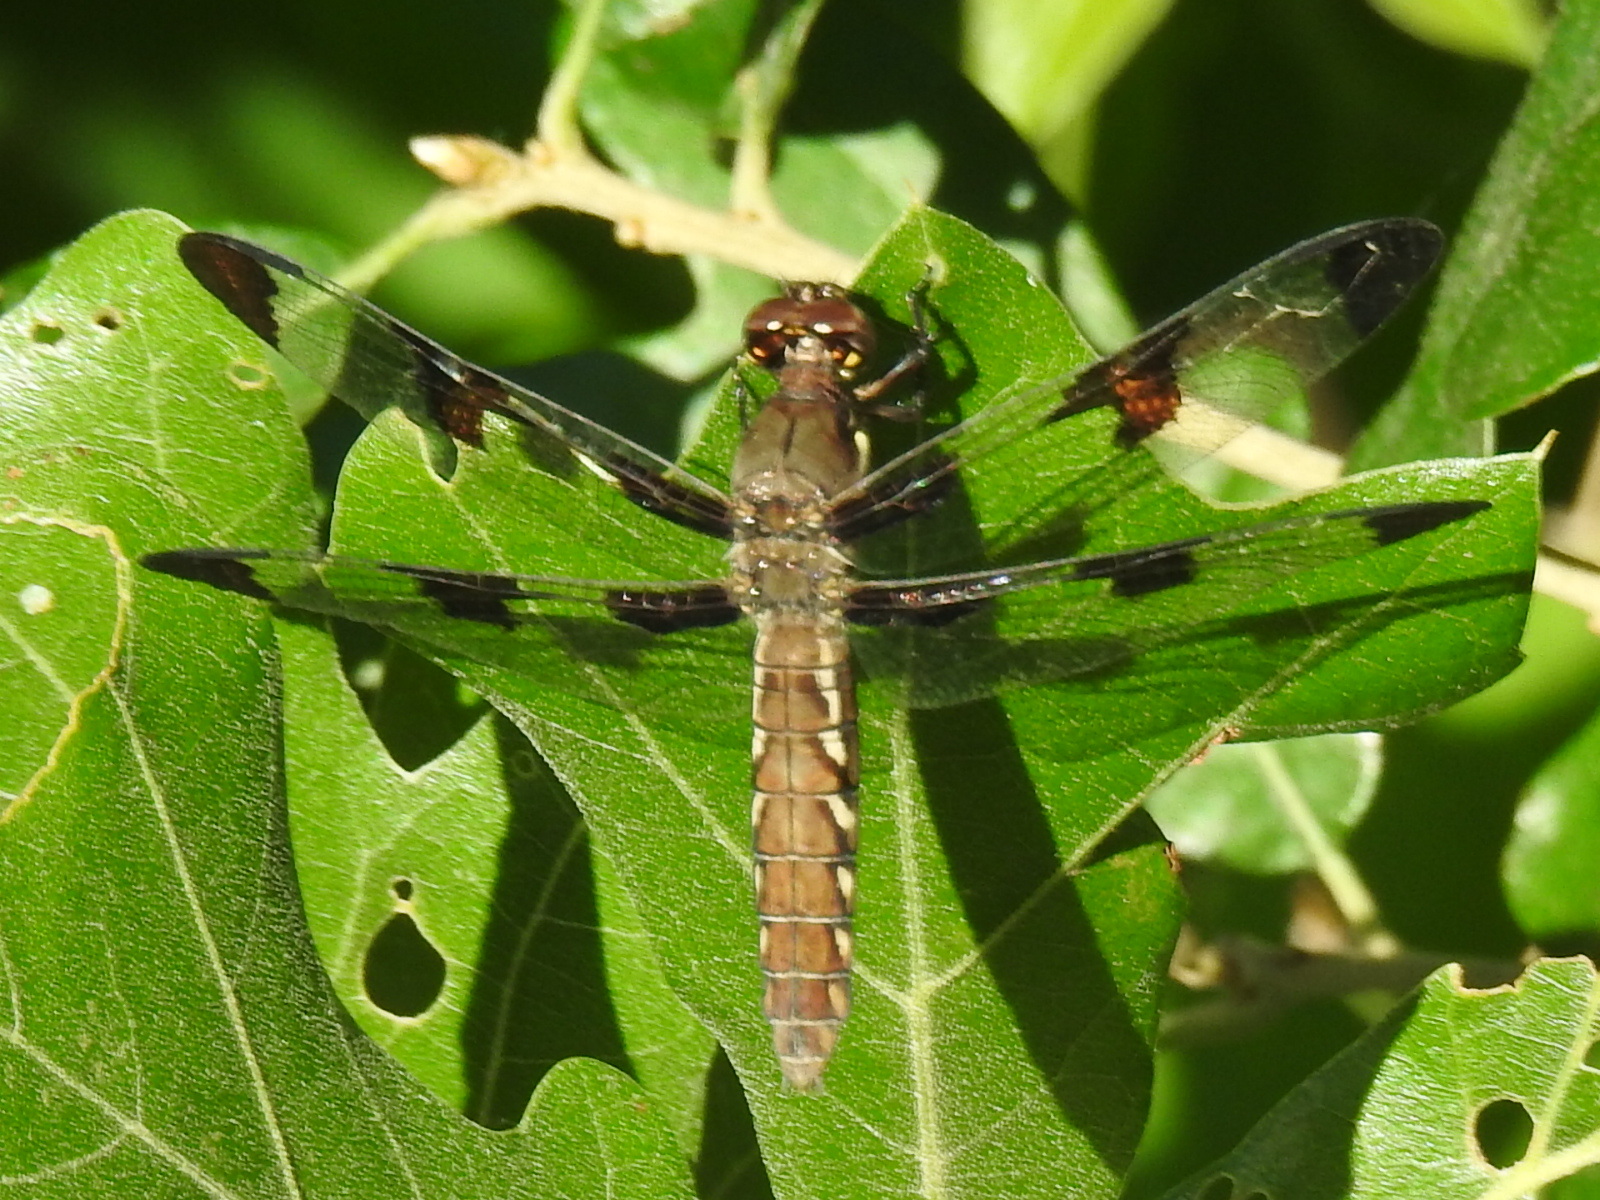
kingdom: Animalia
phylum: Arthropoda
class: Insecta
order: Odonata
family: Libellulidae
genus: Plathemis
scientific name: Plathemis lydia
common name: Common whitetail
